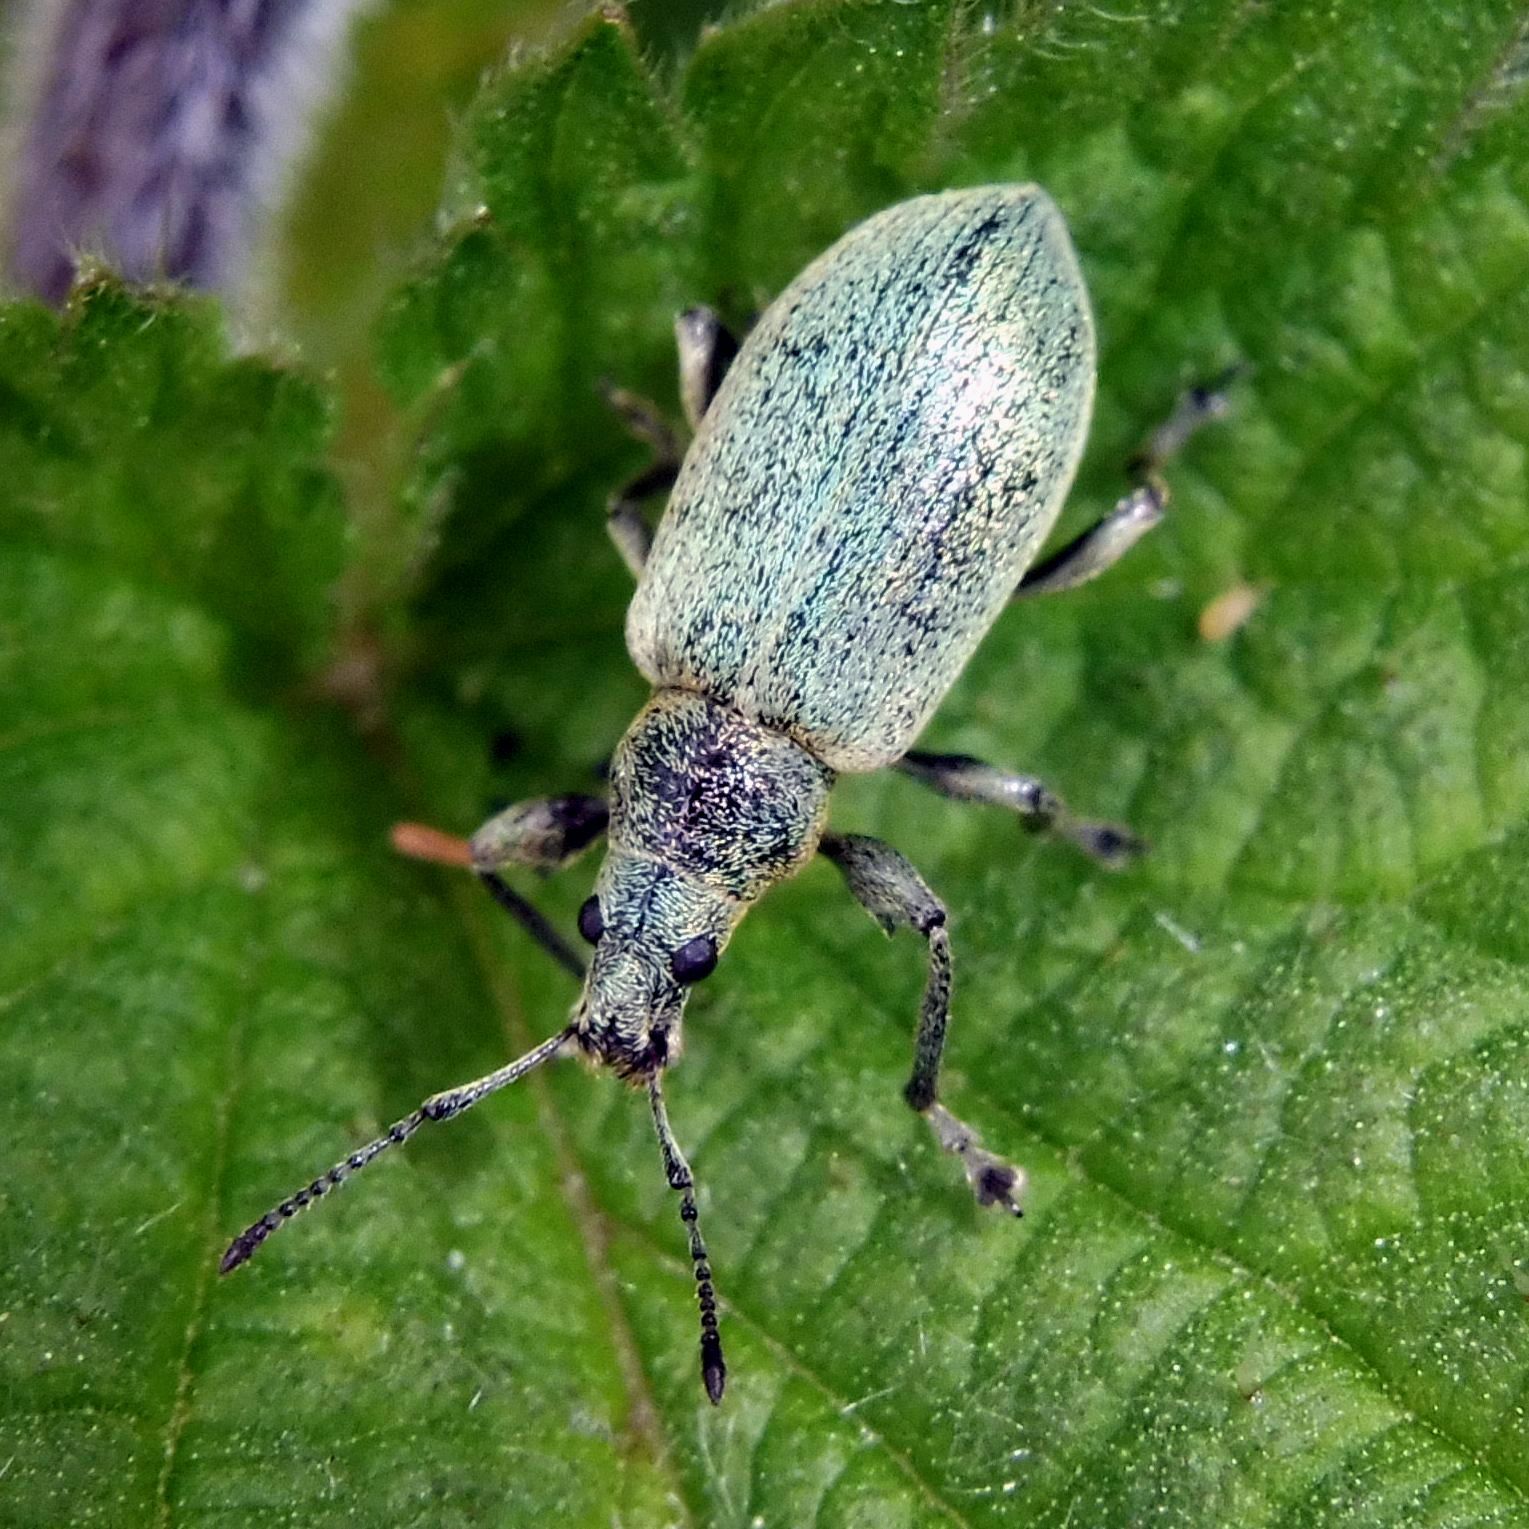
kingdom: Animalia
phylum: Arthropoda
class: Insecta
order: Coleoptera
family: Curculionidae
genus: Phyllobius
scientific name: Phyllobius pomaceus
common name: Green nettle weevil
